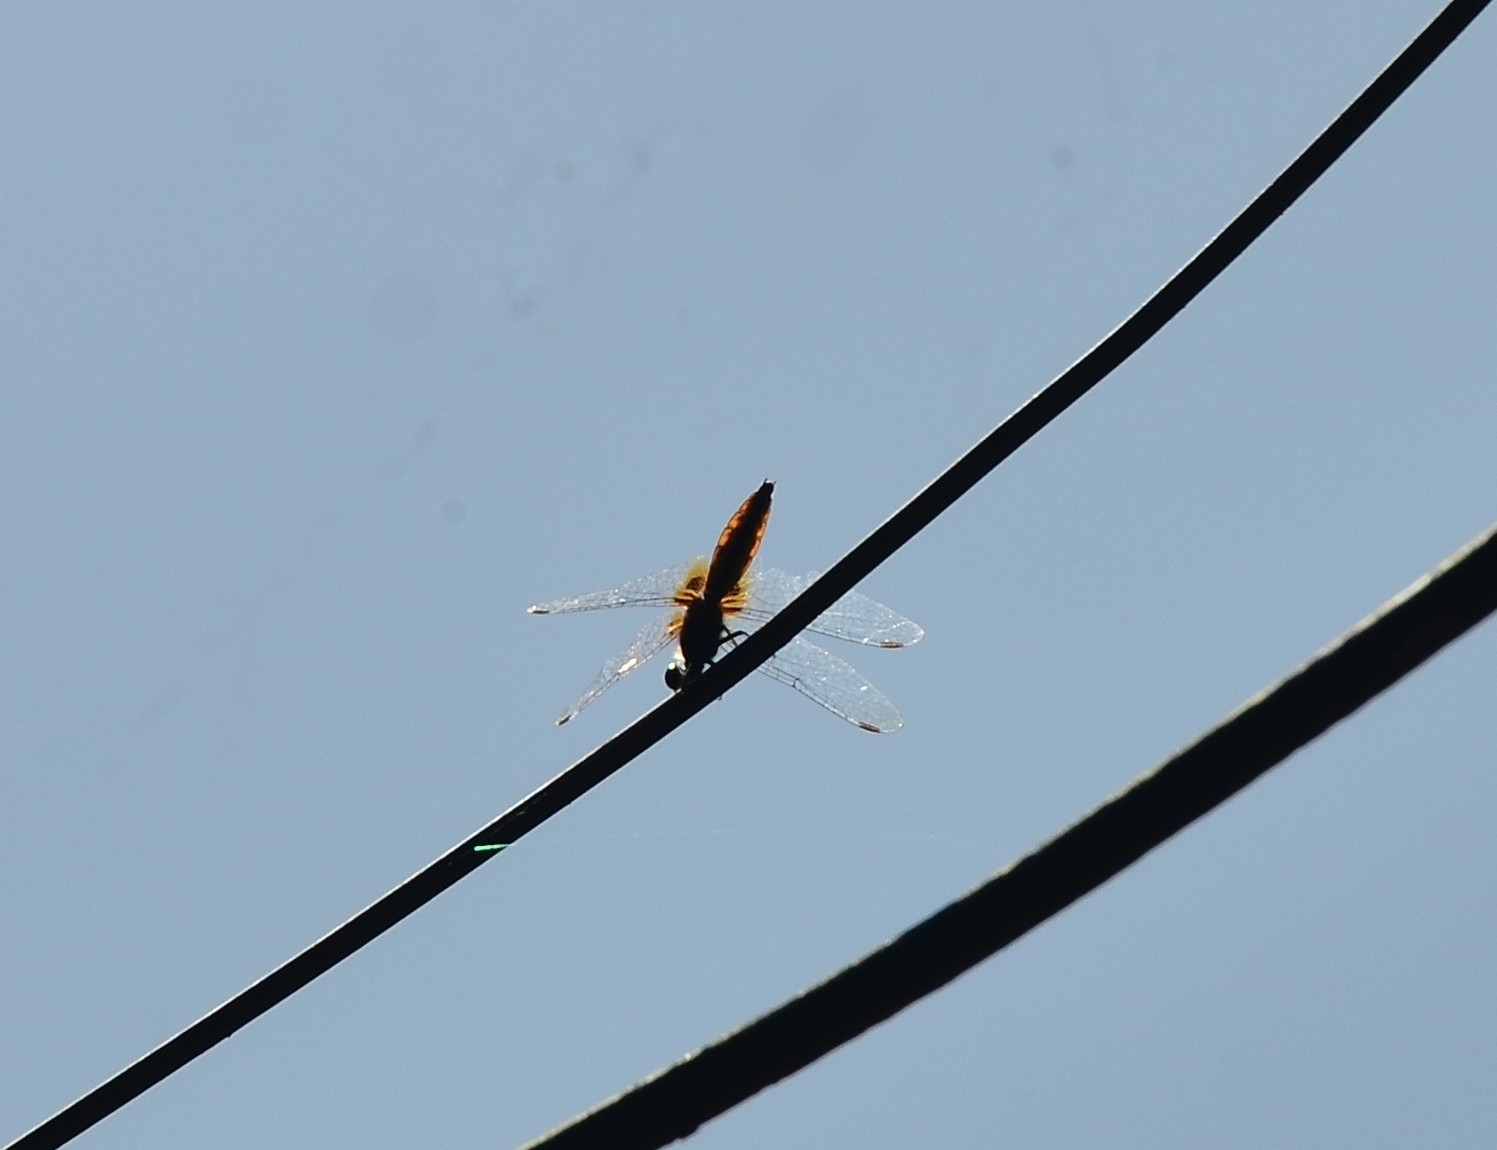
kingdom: Animalia
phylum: Arthropoda
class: Insecta
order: Odonata
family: Libellulidae
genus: Aethriamanta
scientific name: Aethriamanta brevipennis
